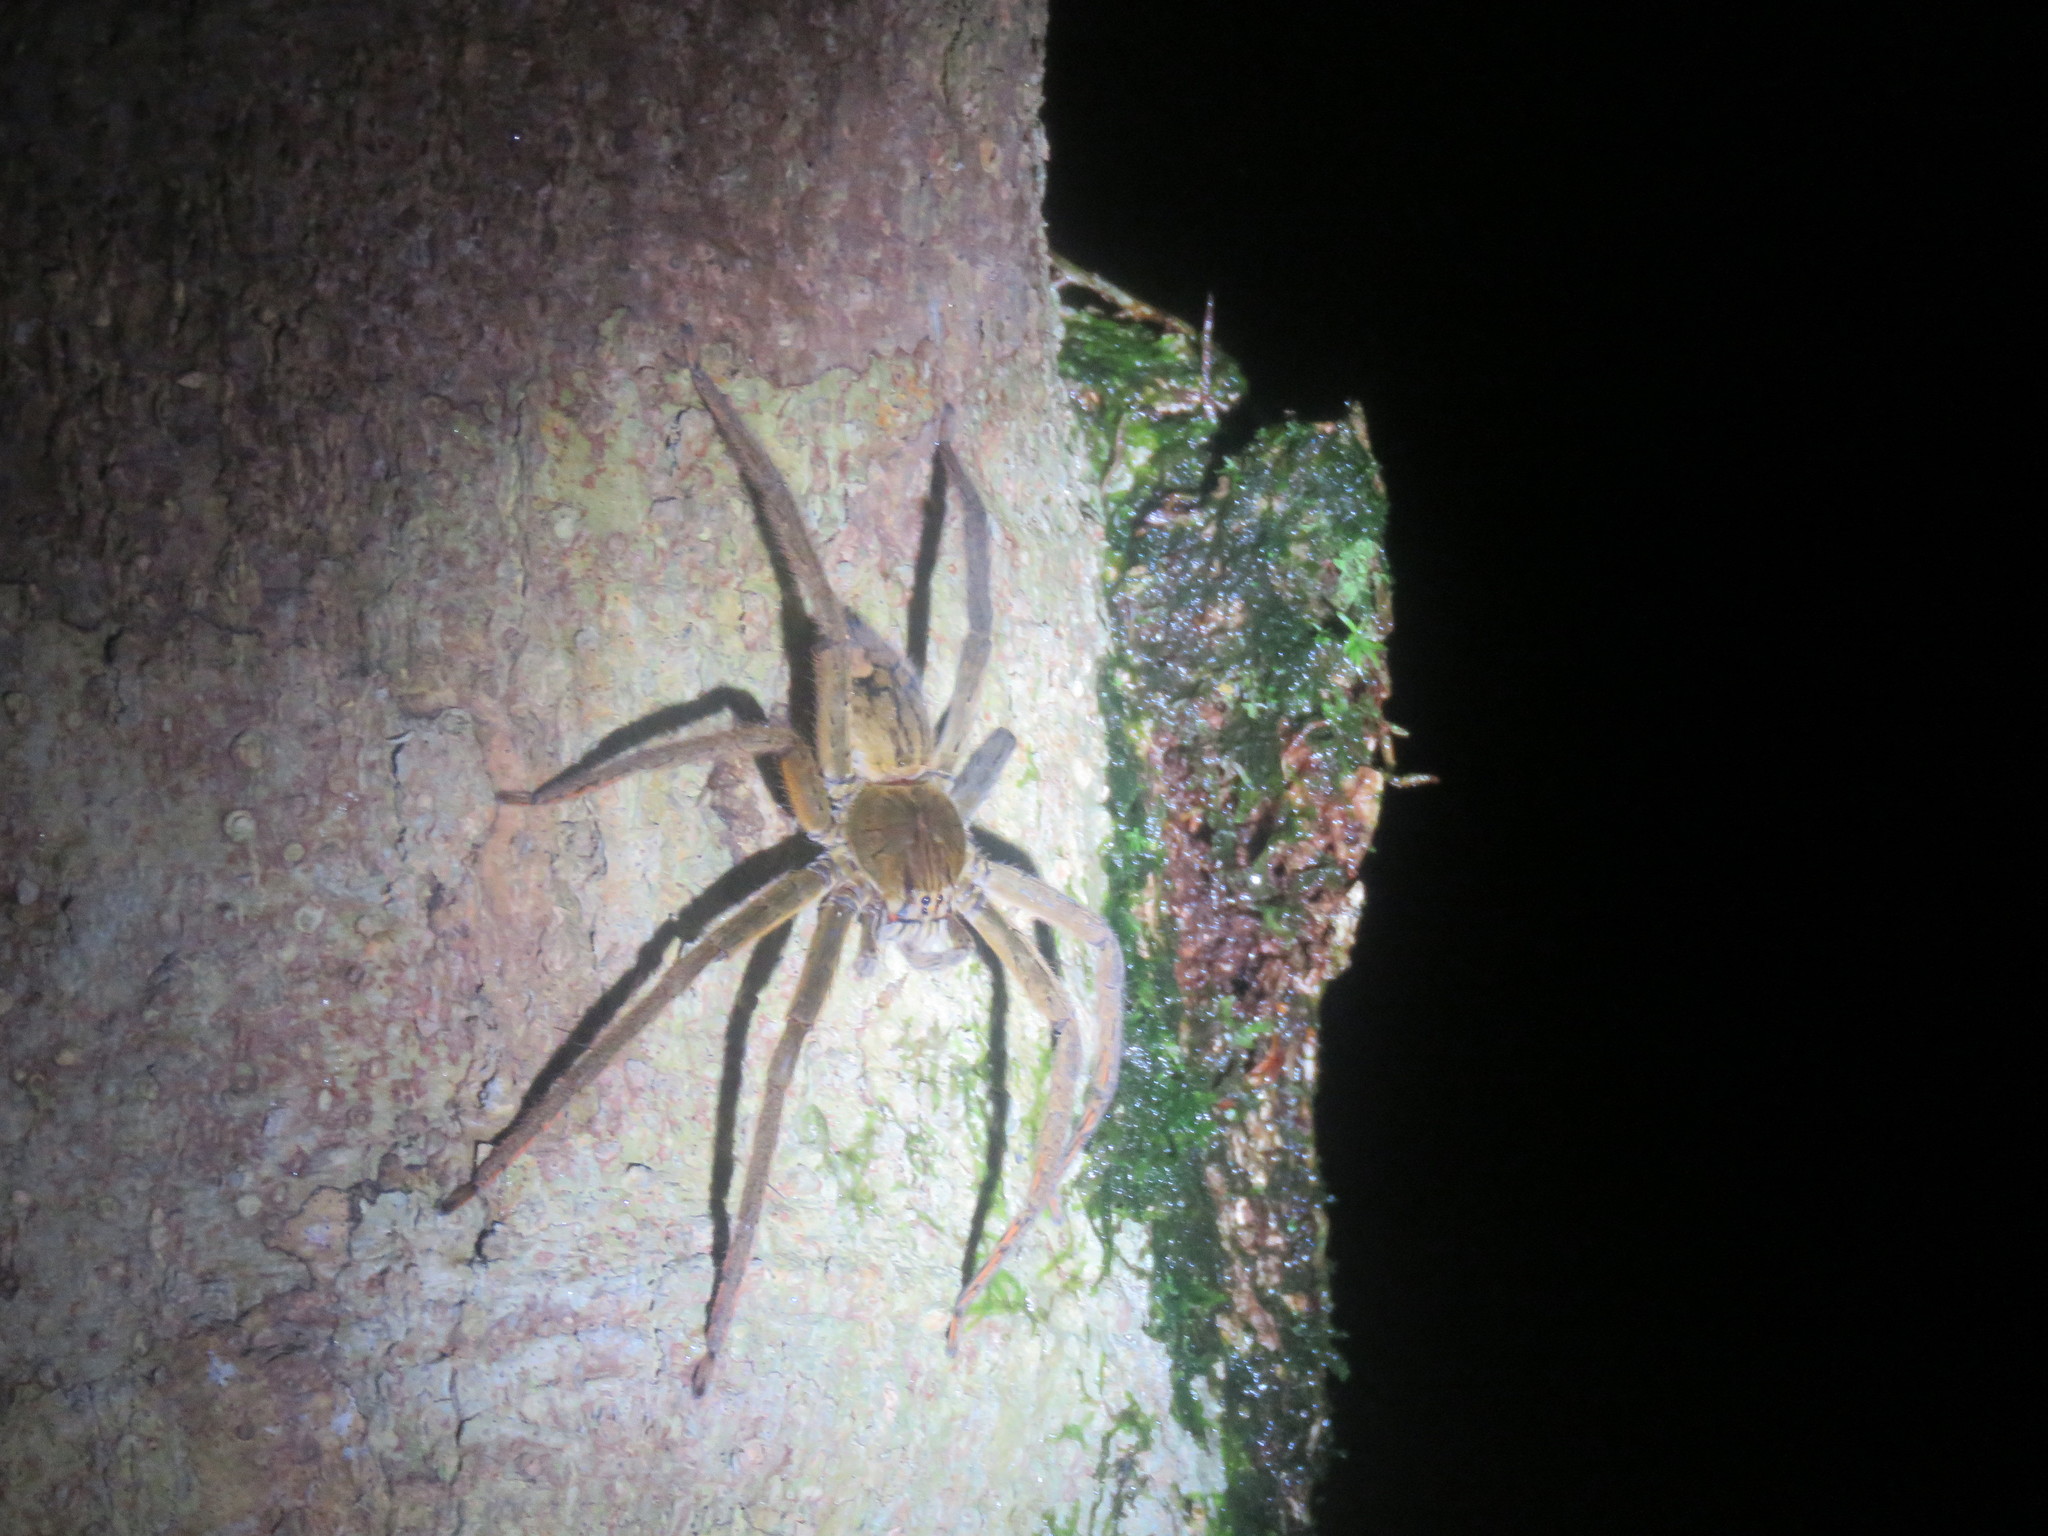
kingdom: Animalia
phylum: Arthropoda
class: Arachnida
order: Araneae
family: Trechaleidae
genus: Cupiennius
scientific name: Cupiennius coccineus
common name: Wandering spiders
